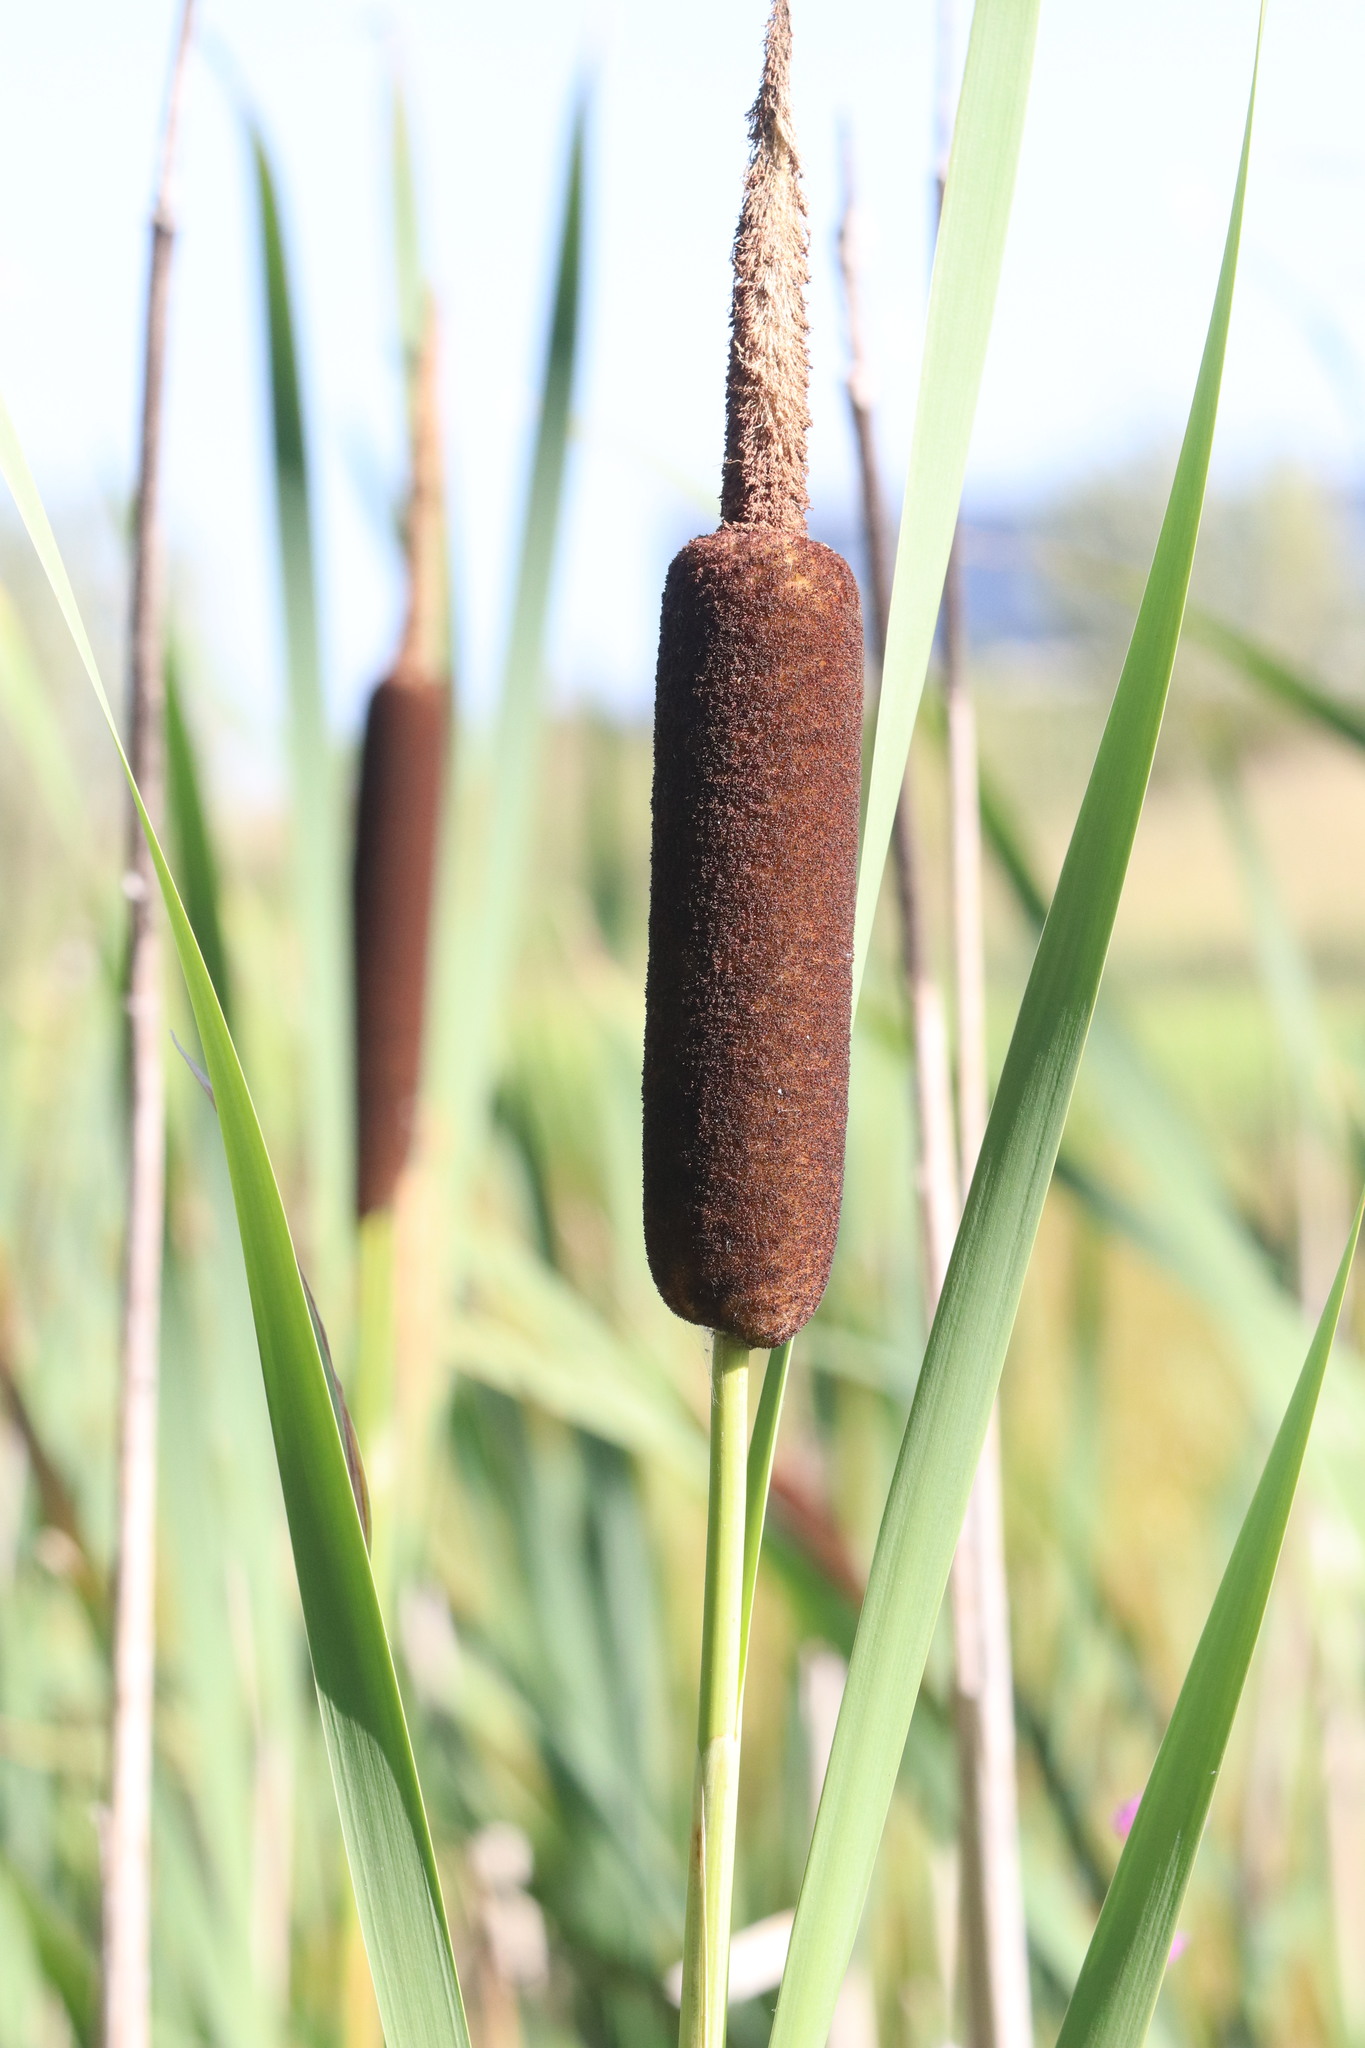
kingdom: Plantae
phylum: Tracheophyta
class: Liliopsida
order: Poales
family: Typhaceae
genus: Typha
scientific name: Typha latifolia
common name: Broadleaf cattail
